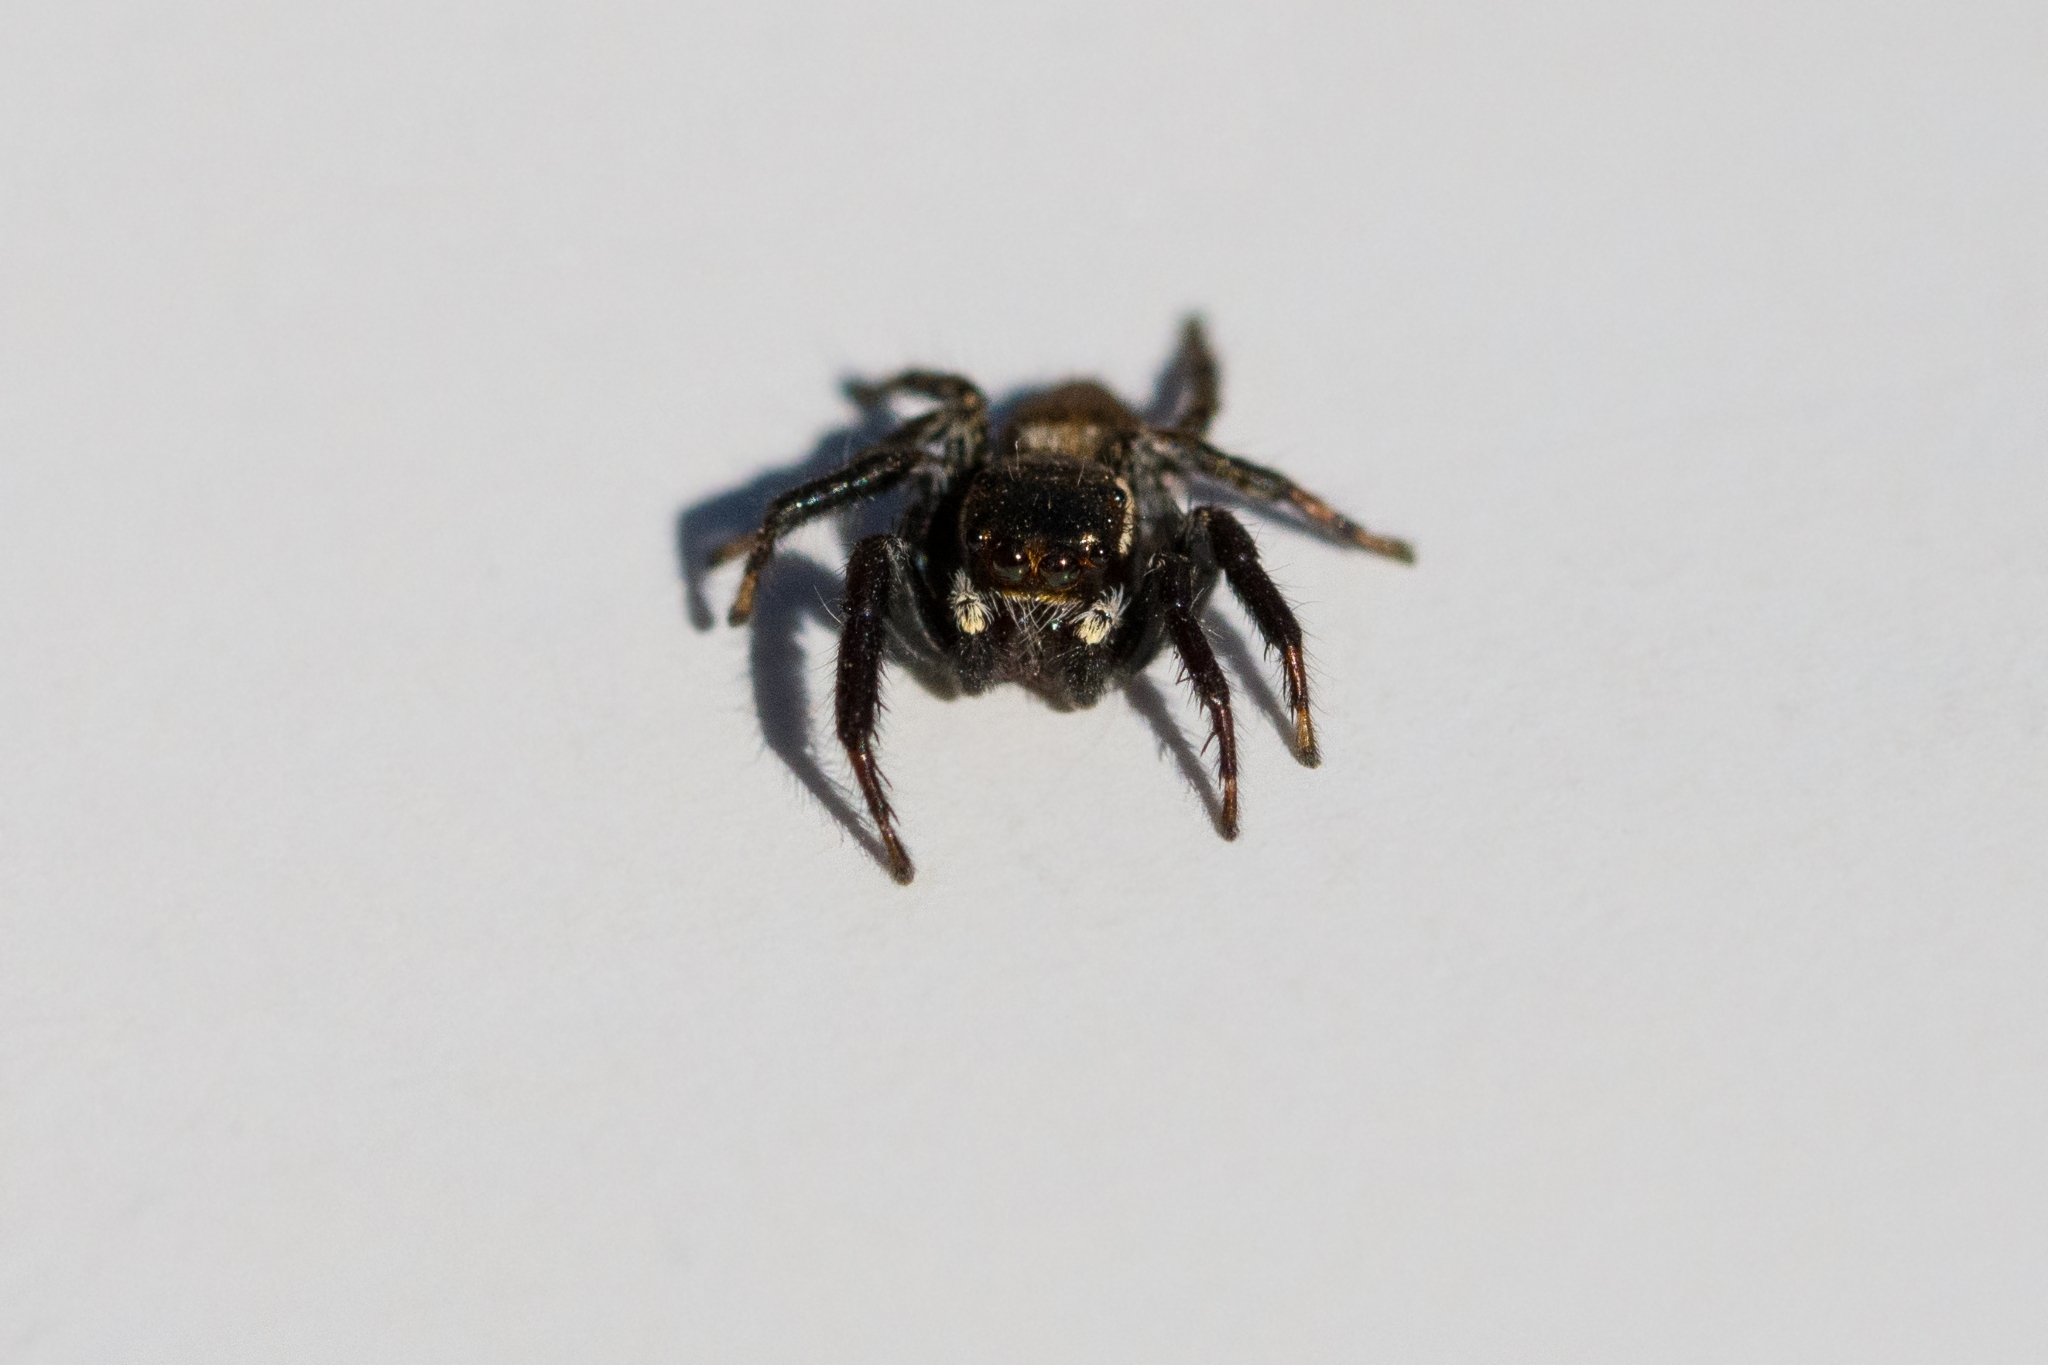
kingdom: Animalia
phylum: Arthropoda
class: Arachnida
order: Araneae
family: Salticidae
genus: Evarcha
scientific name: Evarcha jucunda
